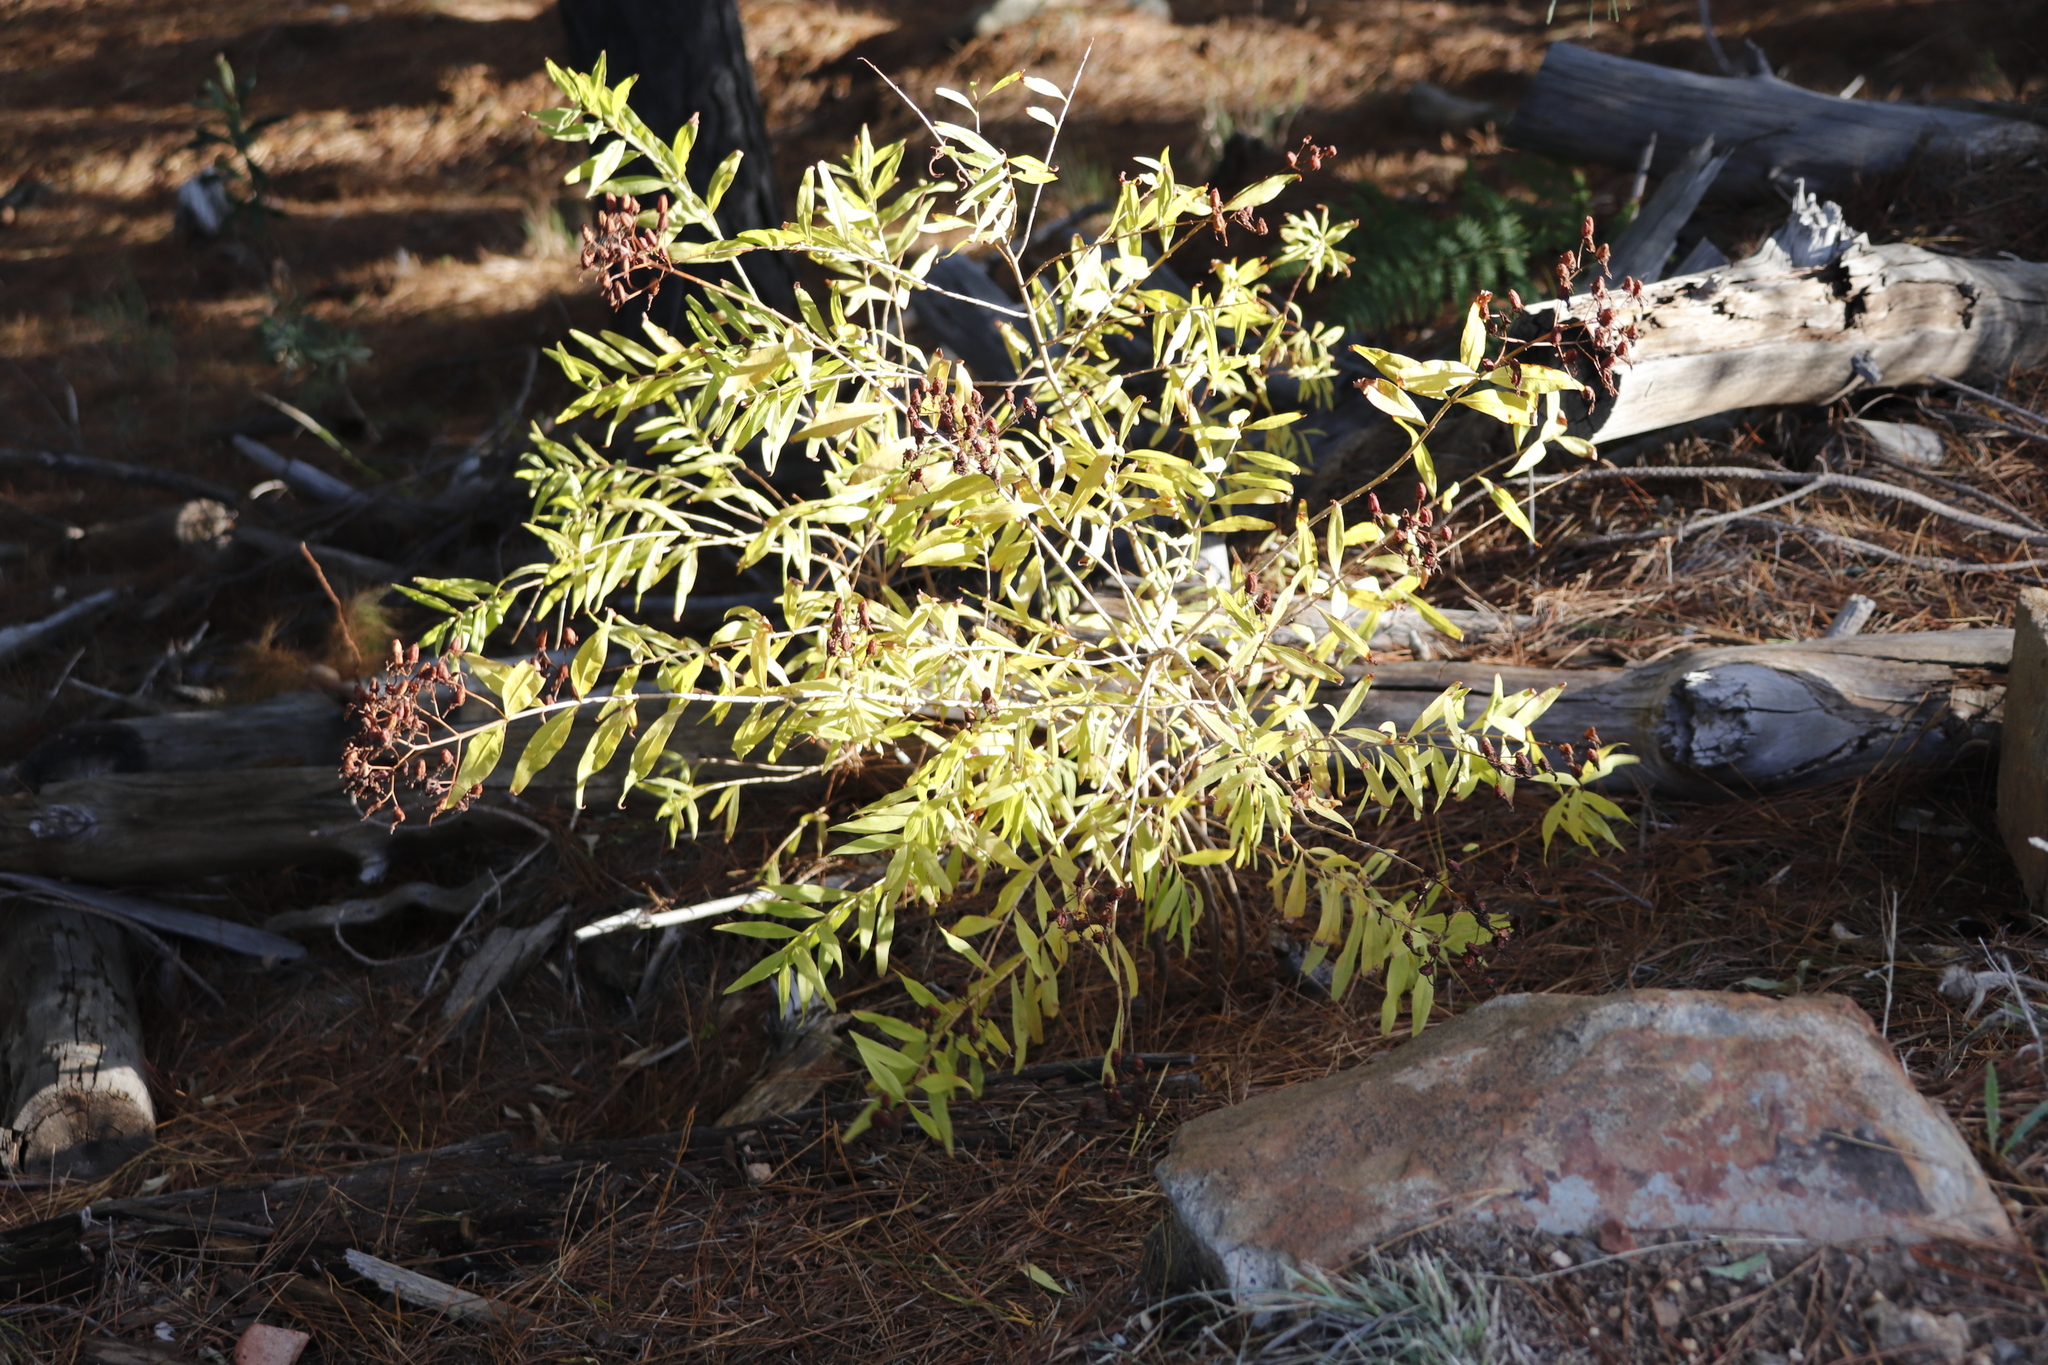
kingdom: Plantae
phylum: Tracheophyta
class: Magnoliopsida
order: Malpighiales
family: Hypericaceae
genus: Hypericum
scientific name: Hypericum canariense
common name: Canary island st. johnswort
